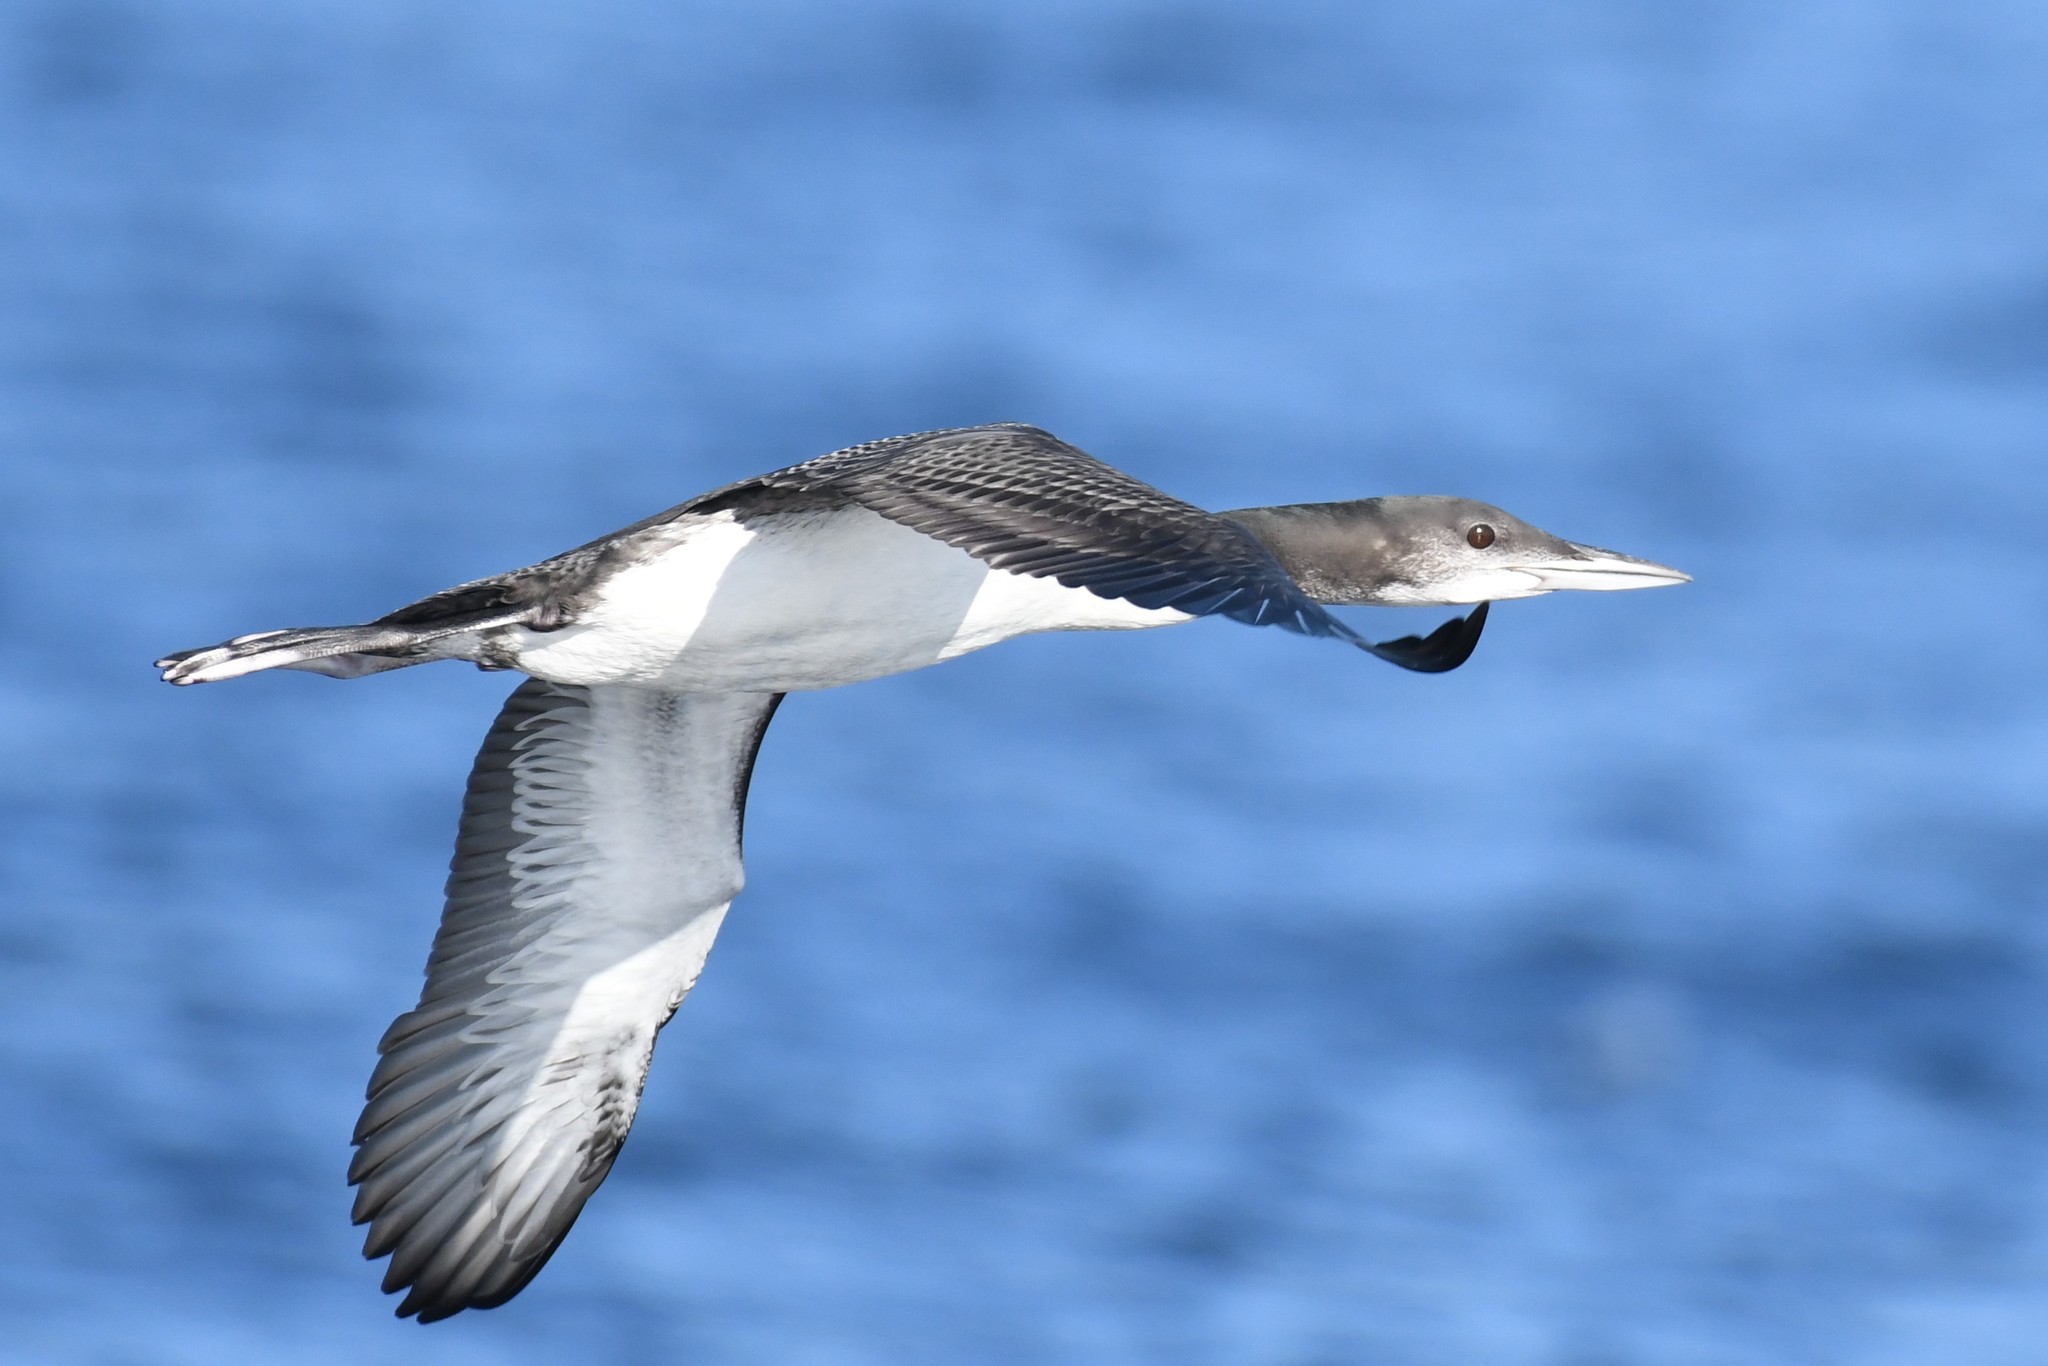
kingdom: Animalia
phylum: Chordata
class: Aves
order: Gaviiformes
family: Gaviidae
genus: Gavia
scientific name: Gavia immer
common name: Common loon
